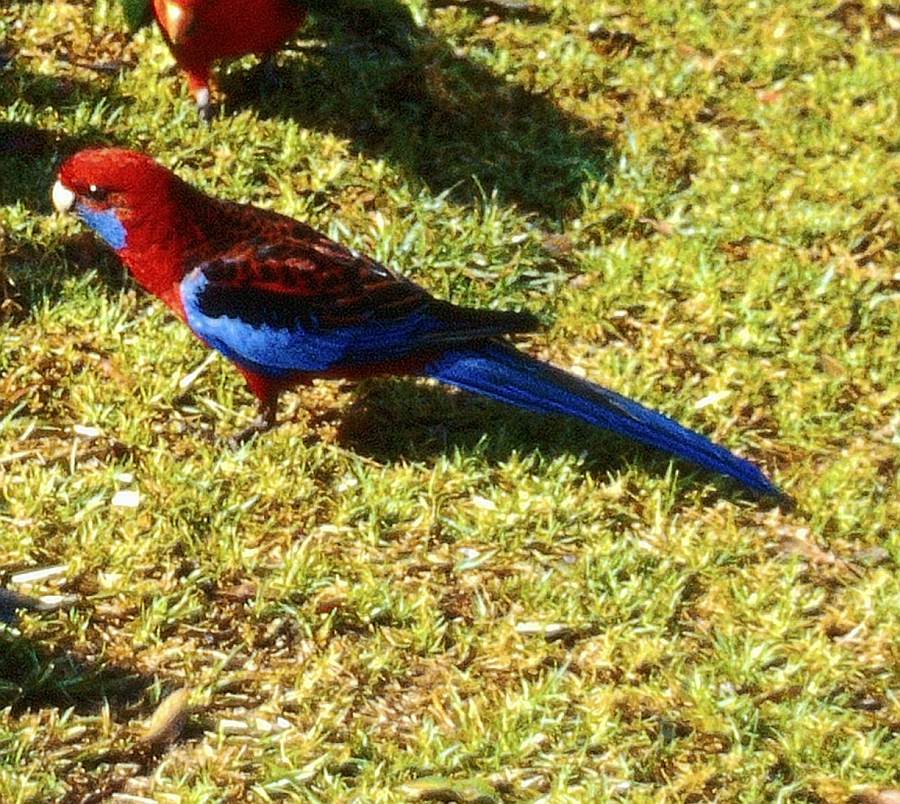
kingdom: Animalia
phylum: Chordata
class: Aves
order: Psittaciformes
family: Psittacidae
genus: Platycercus
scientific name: Platycercus elegans
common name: Crimson rosella
